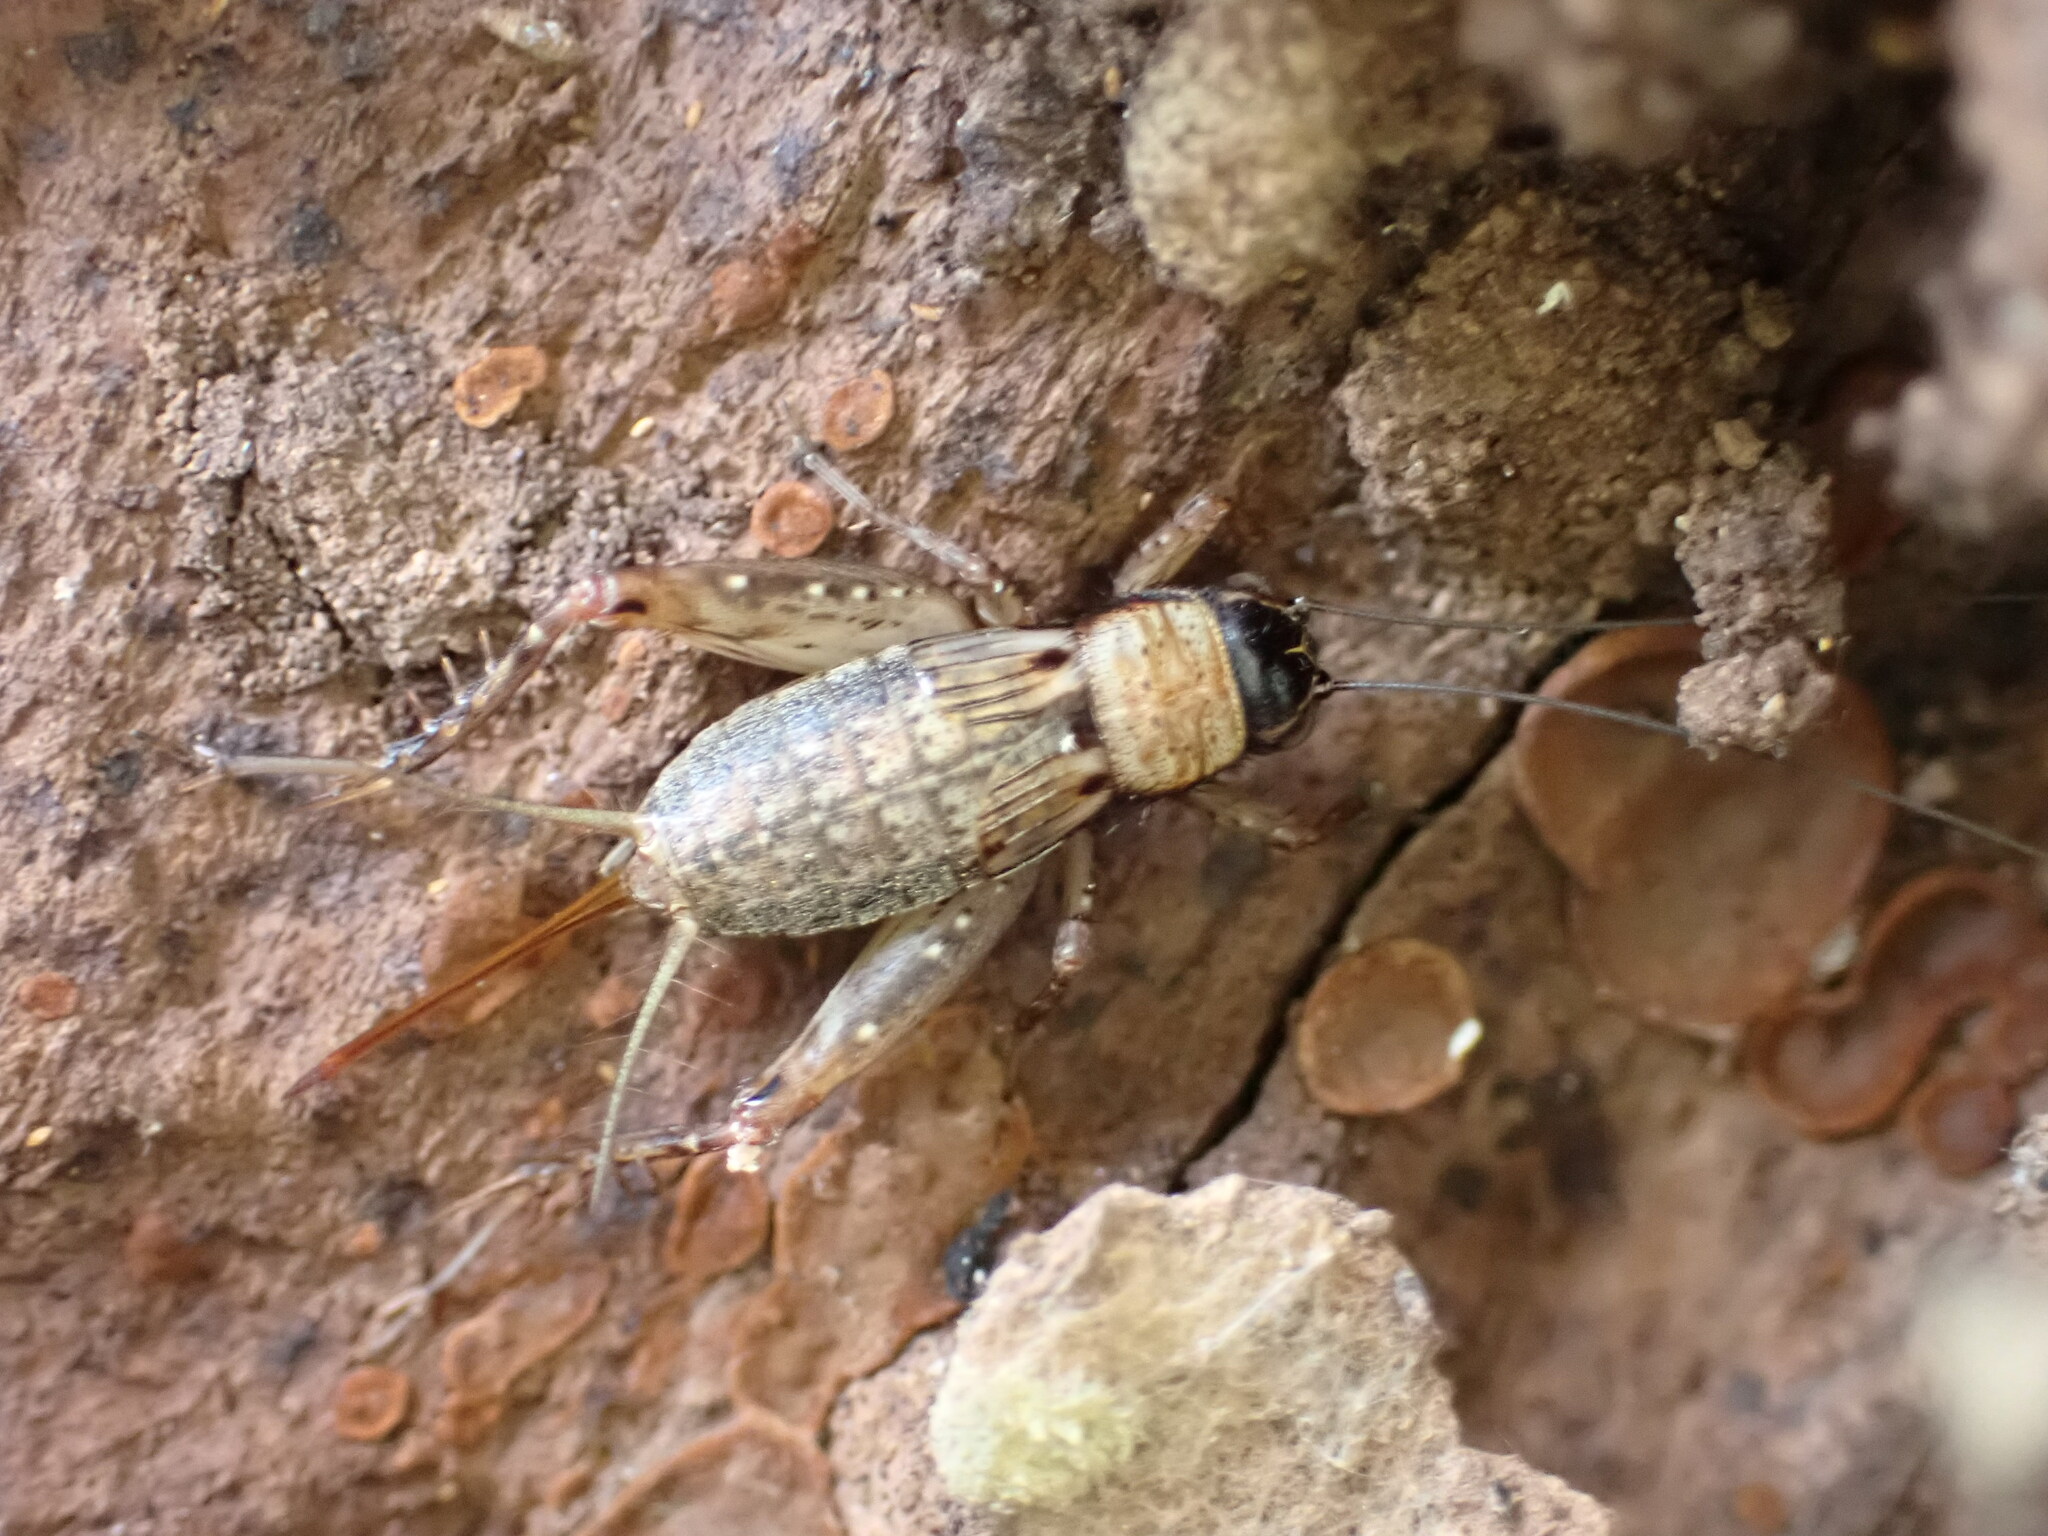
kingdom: Animalia
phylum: Arthropoda
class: Insecta
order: Orthoptera
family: Trigonidiidae
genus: Nemobius
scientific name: Nemobius sylvestris
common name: Wood-cricket
